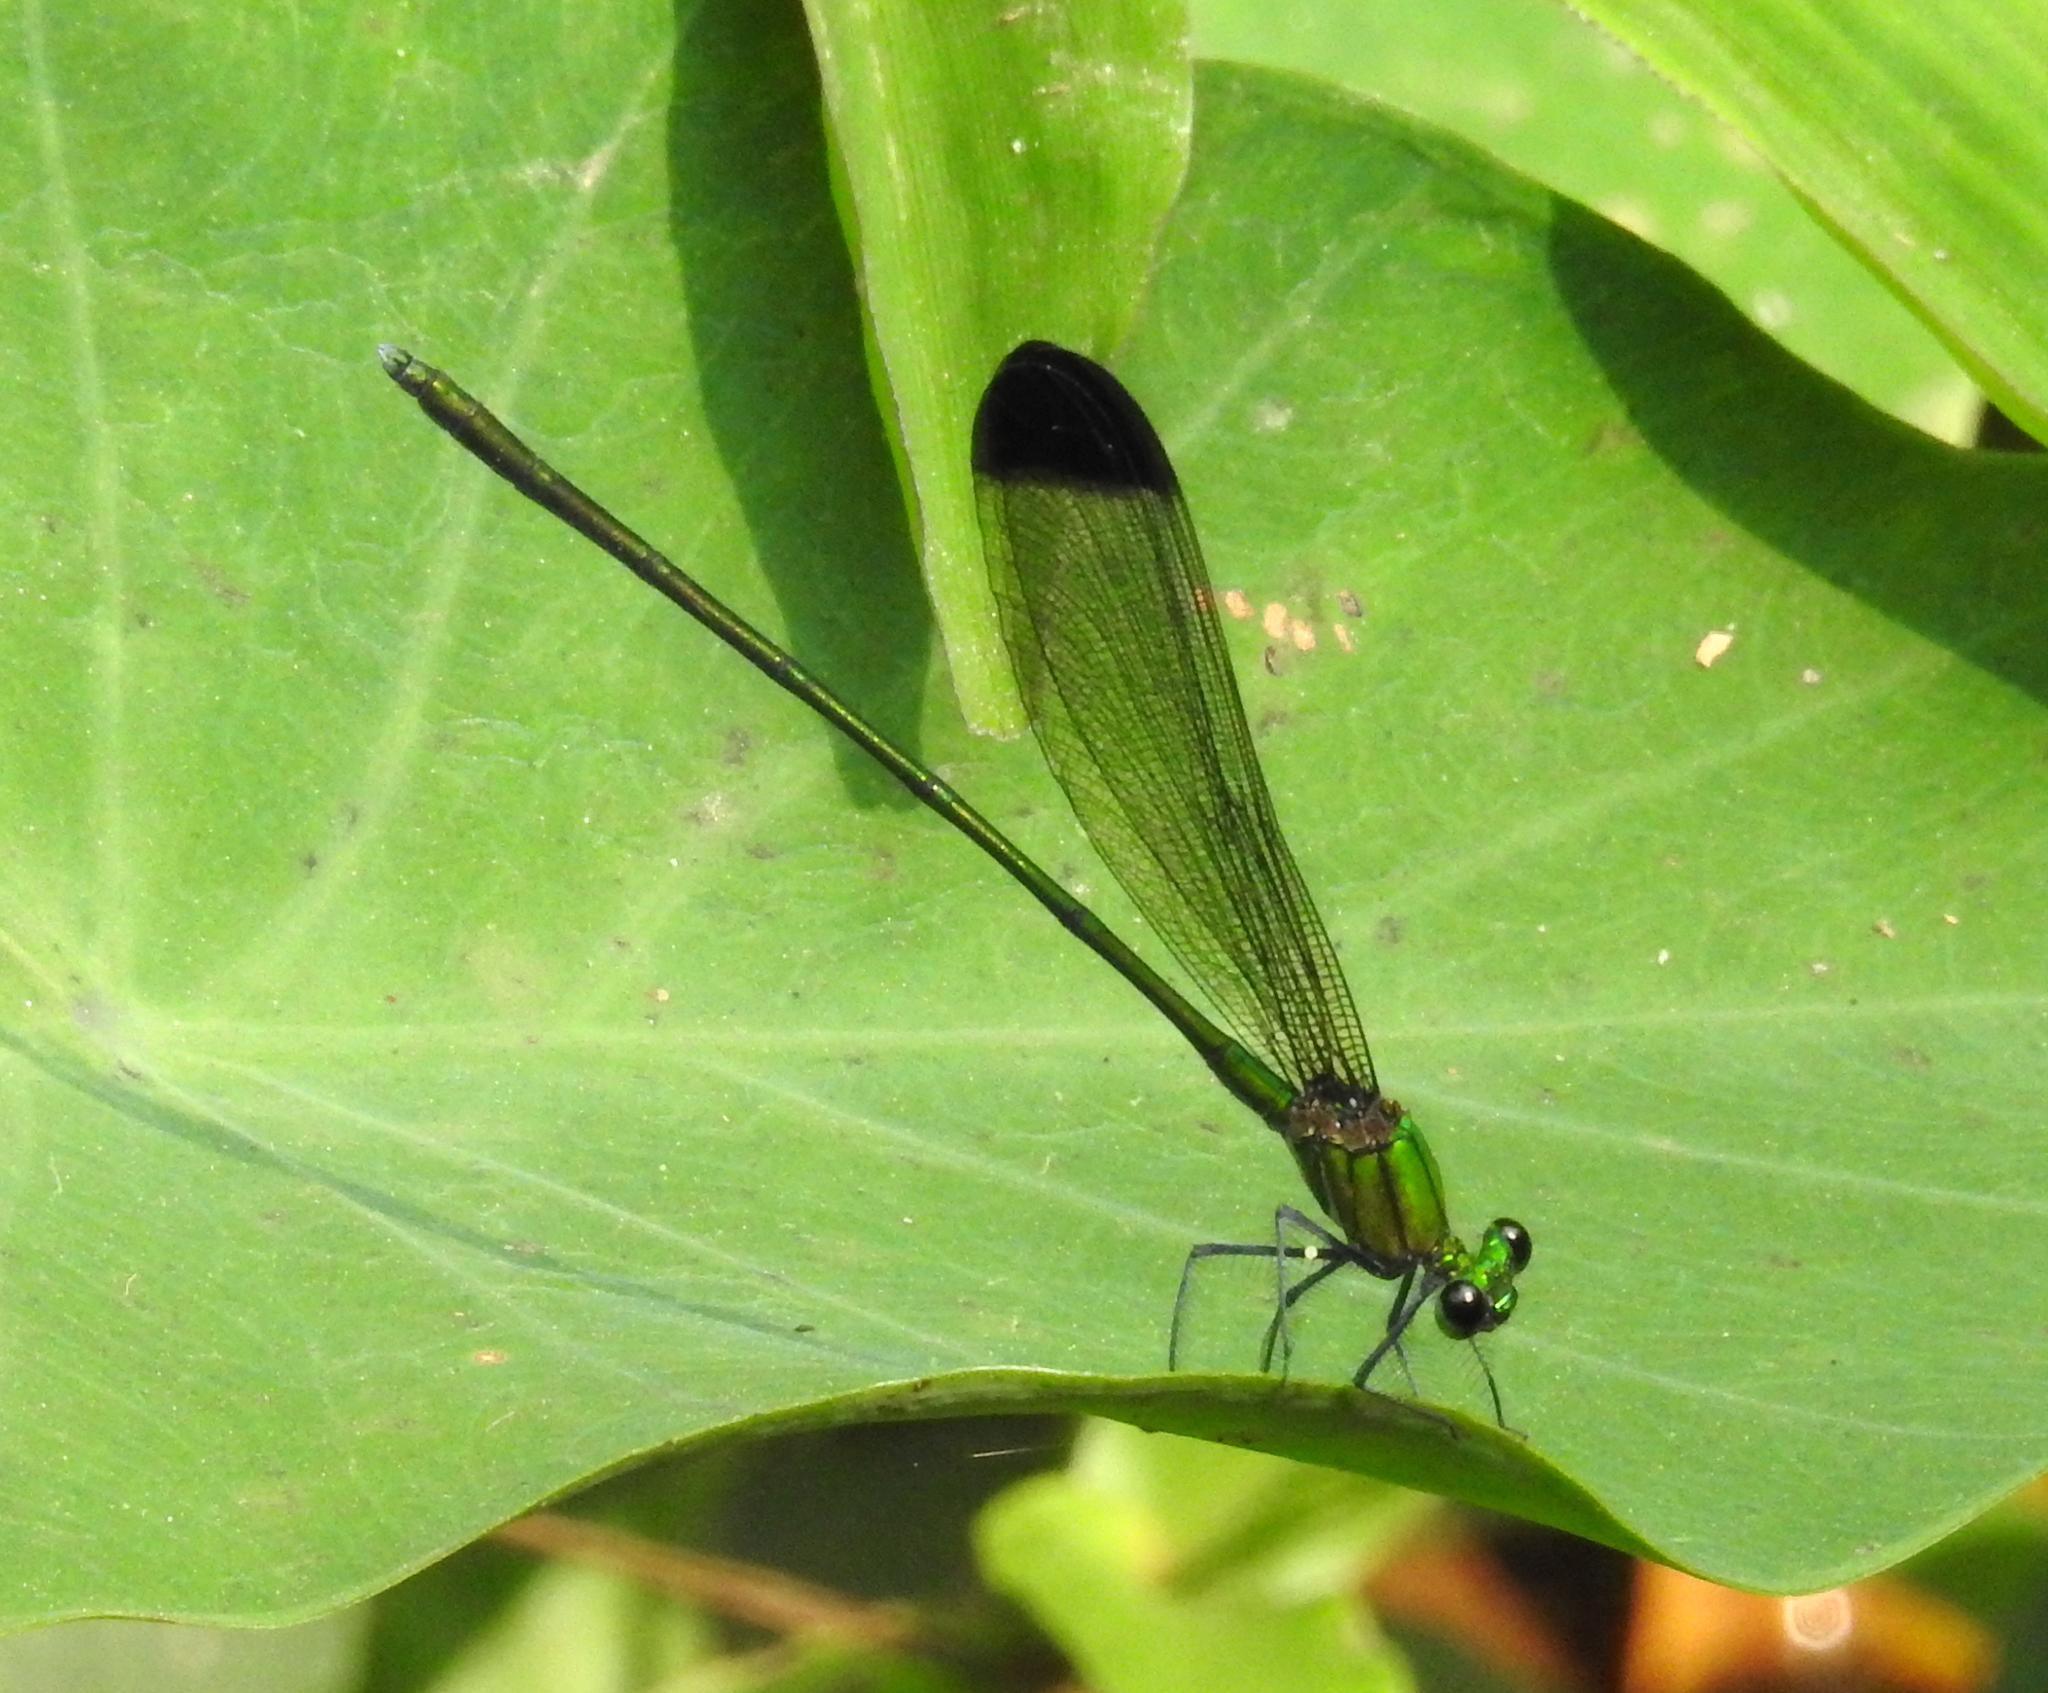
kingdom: Animalia
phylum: Arthropoda
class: Insecta
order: Odonata
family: Calopterygidae
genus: Vestalis
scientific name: Vestalis nigrescens
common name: Black-tipped demoiselle
